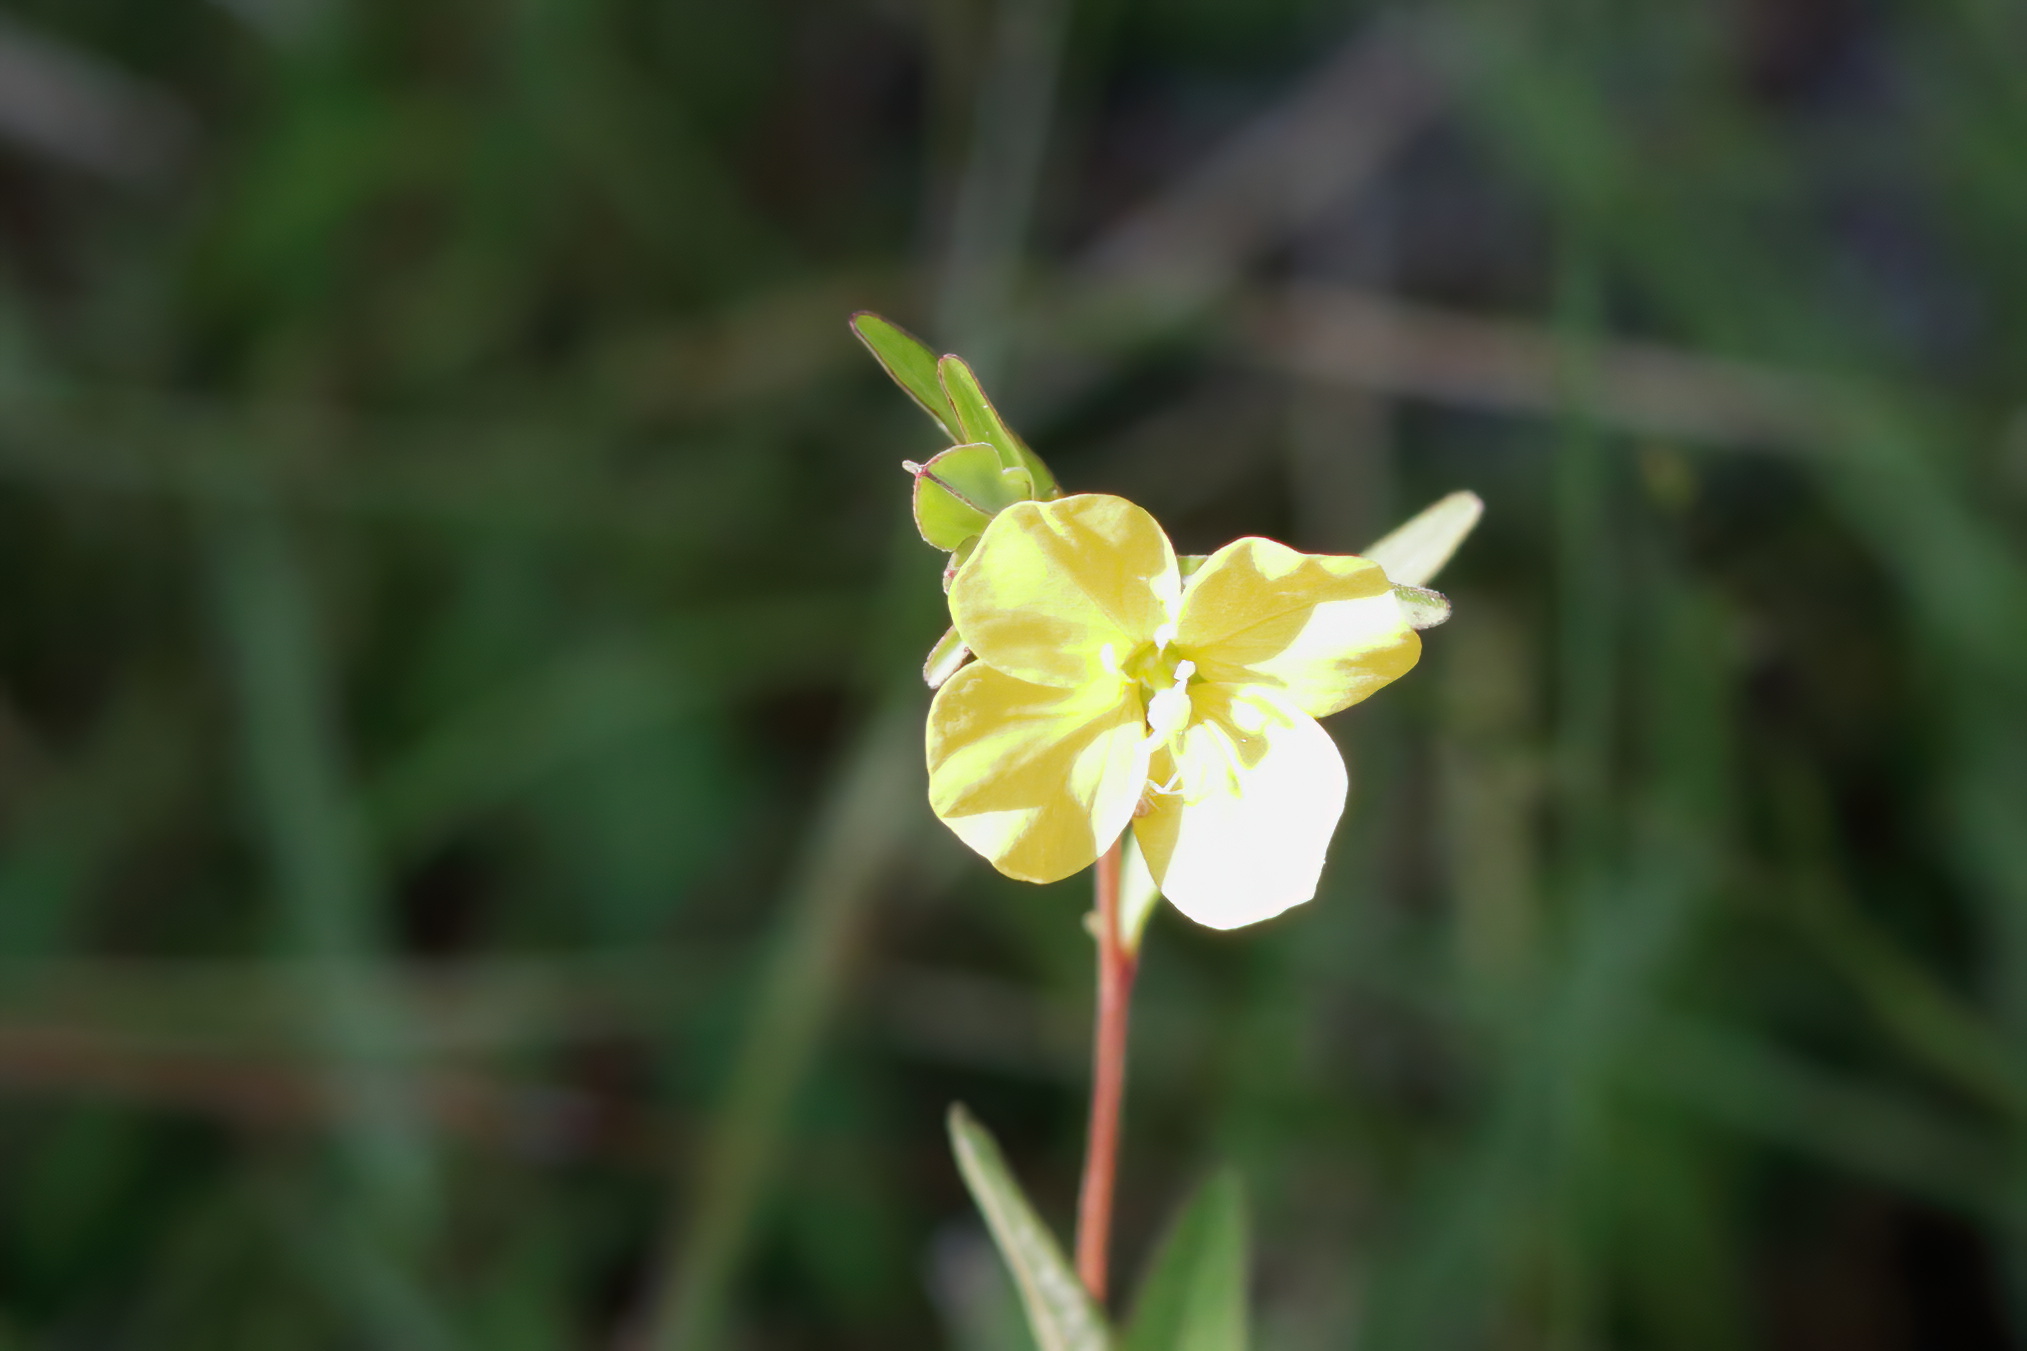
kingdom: Plantae
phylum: Tracheophyta
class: Magnoliopsida
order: Myrtales
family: Onagraceae
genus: Ludwigia
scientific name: Ludwigia maritima
